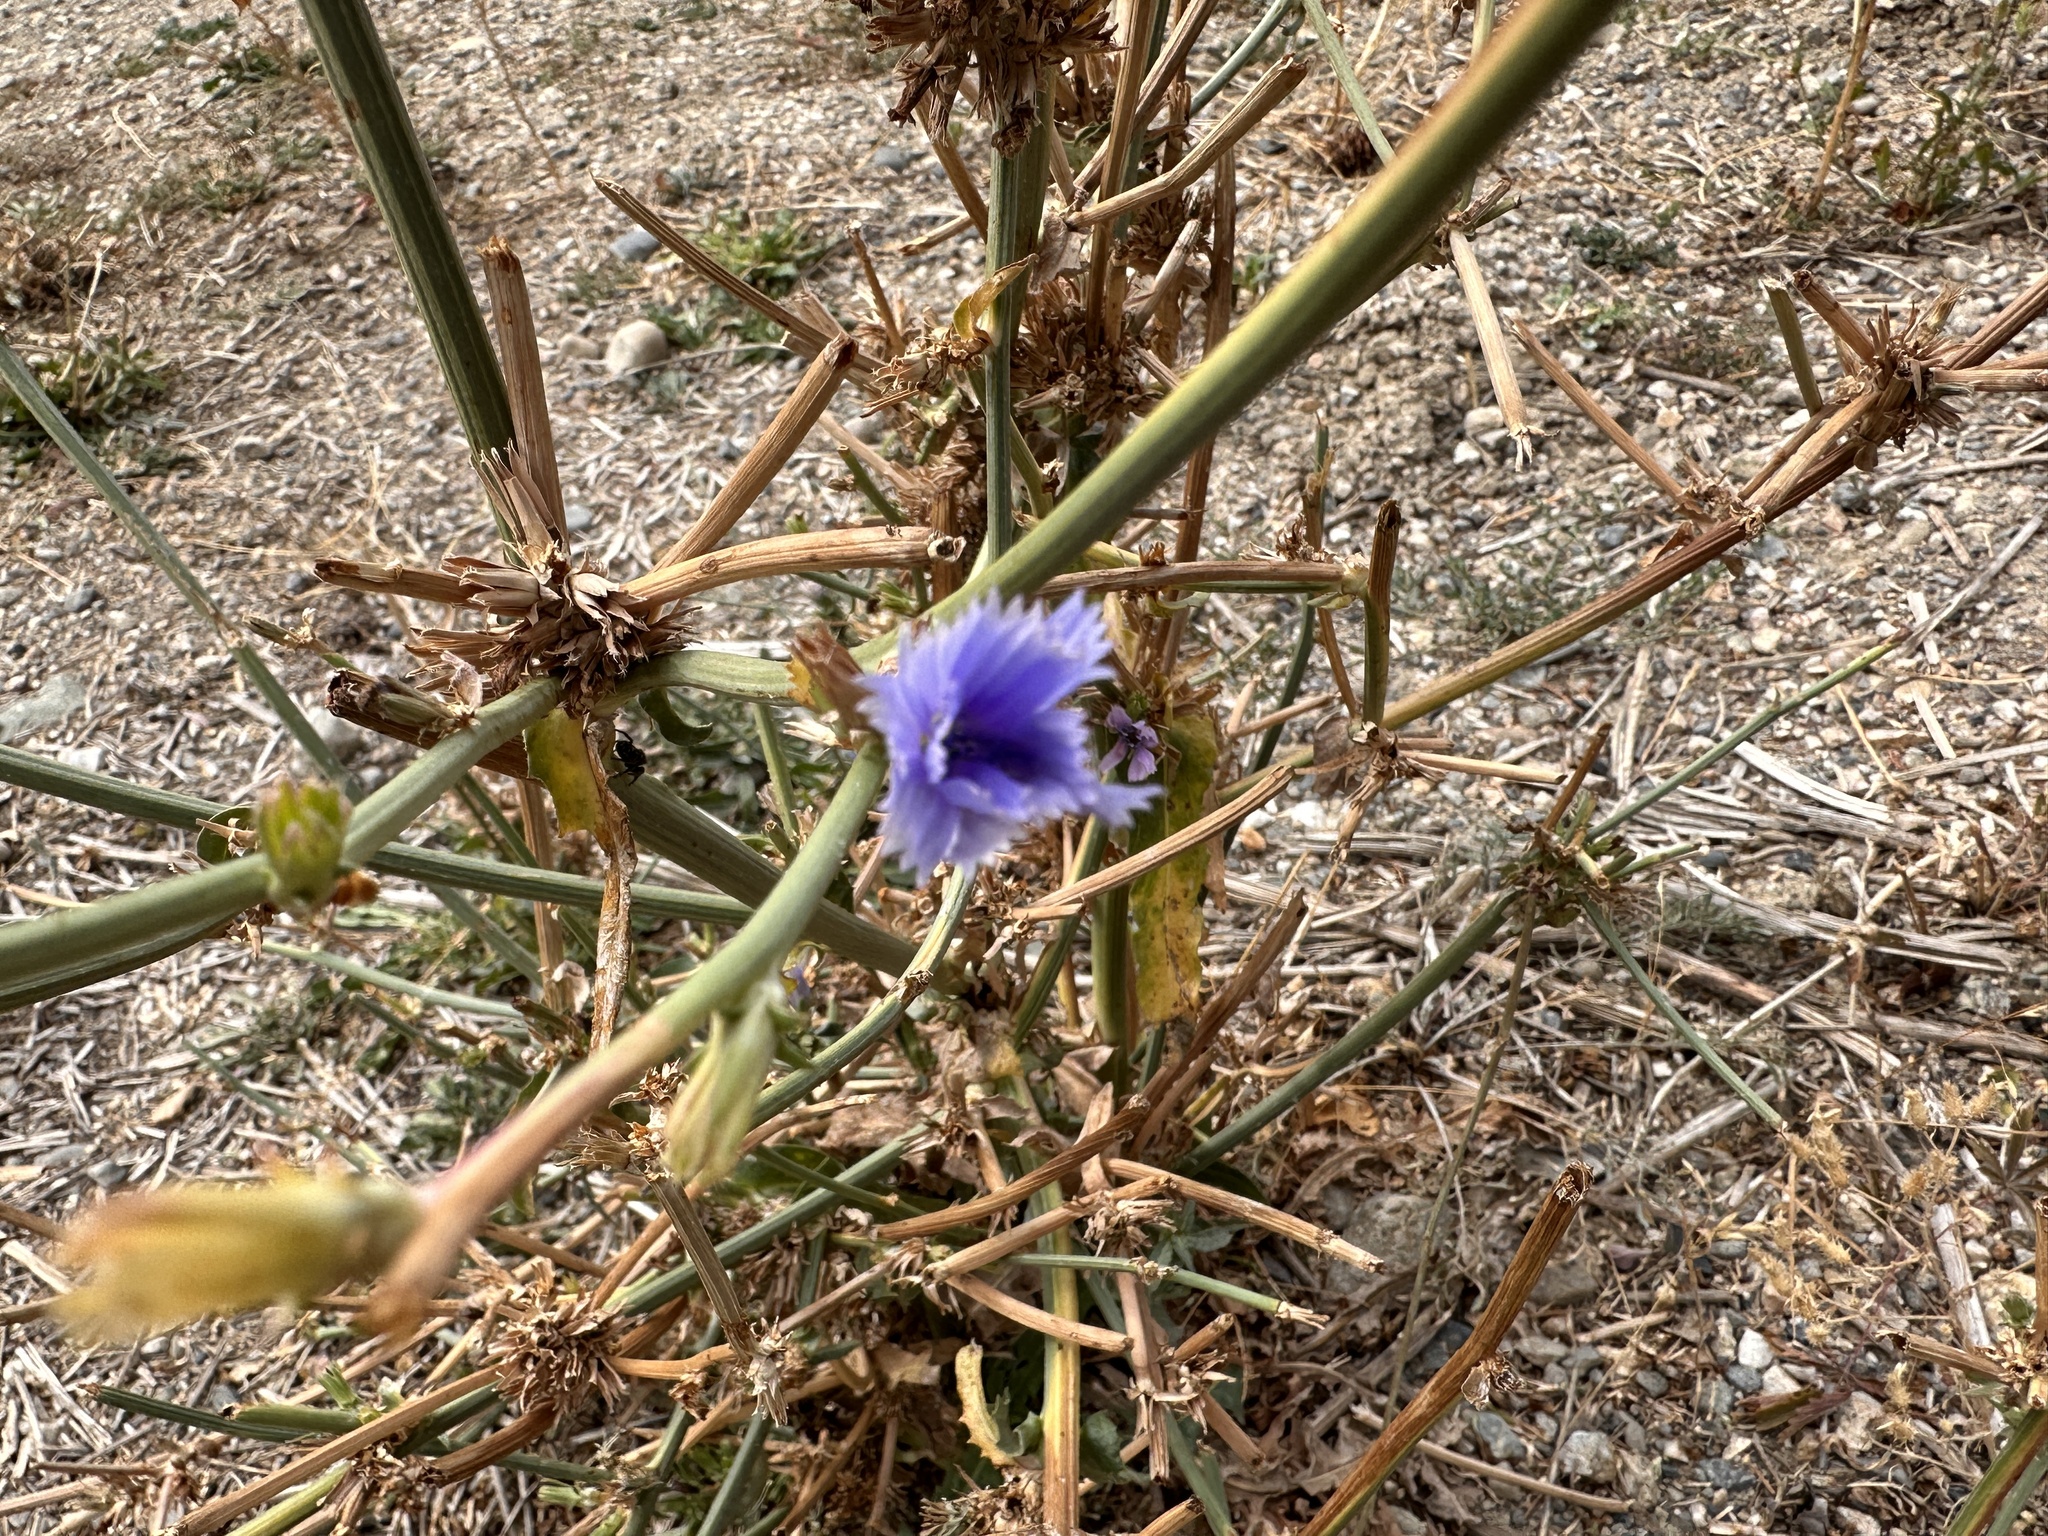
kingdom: Plantae
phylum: Tracheophyta
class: Magnoliopsida
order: Asterales
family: Asteraceae
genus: Cichorium
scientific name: Cichorium intybus
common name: Chicory
